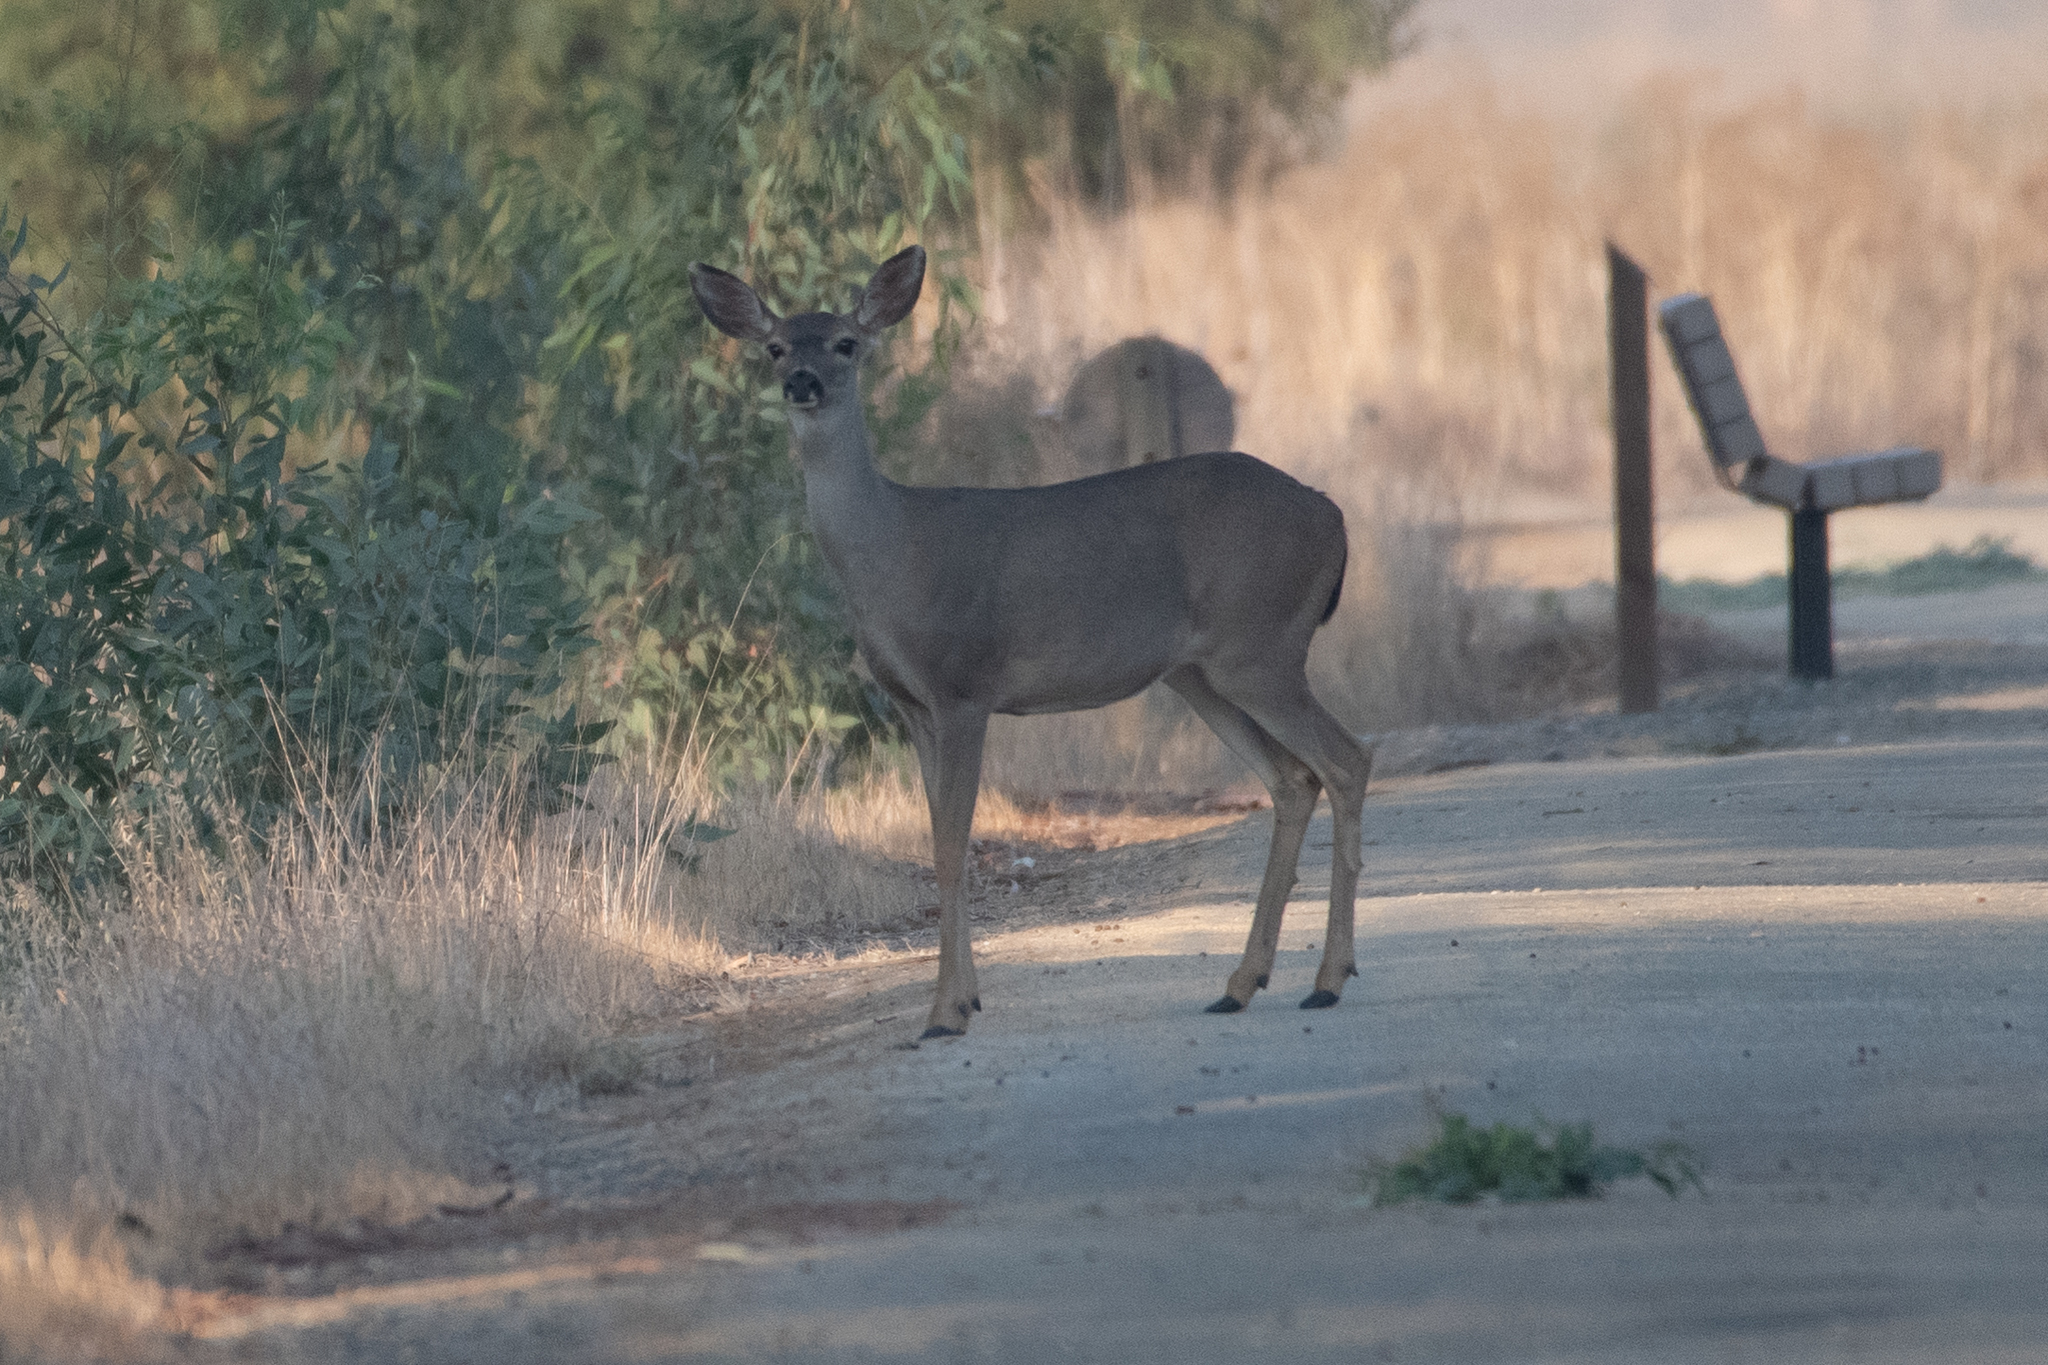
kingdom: Animalia
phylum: Chordata
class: Mammalia
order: Artiodactyla
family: Cervidae
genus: Odocoileus
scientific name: Odocoileus hemionus
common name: Mule deer
